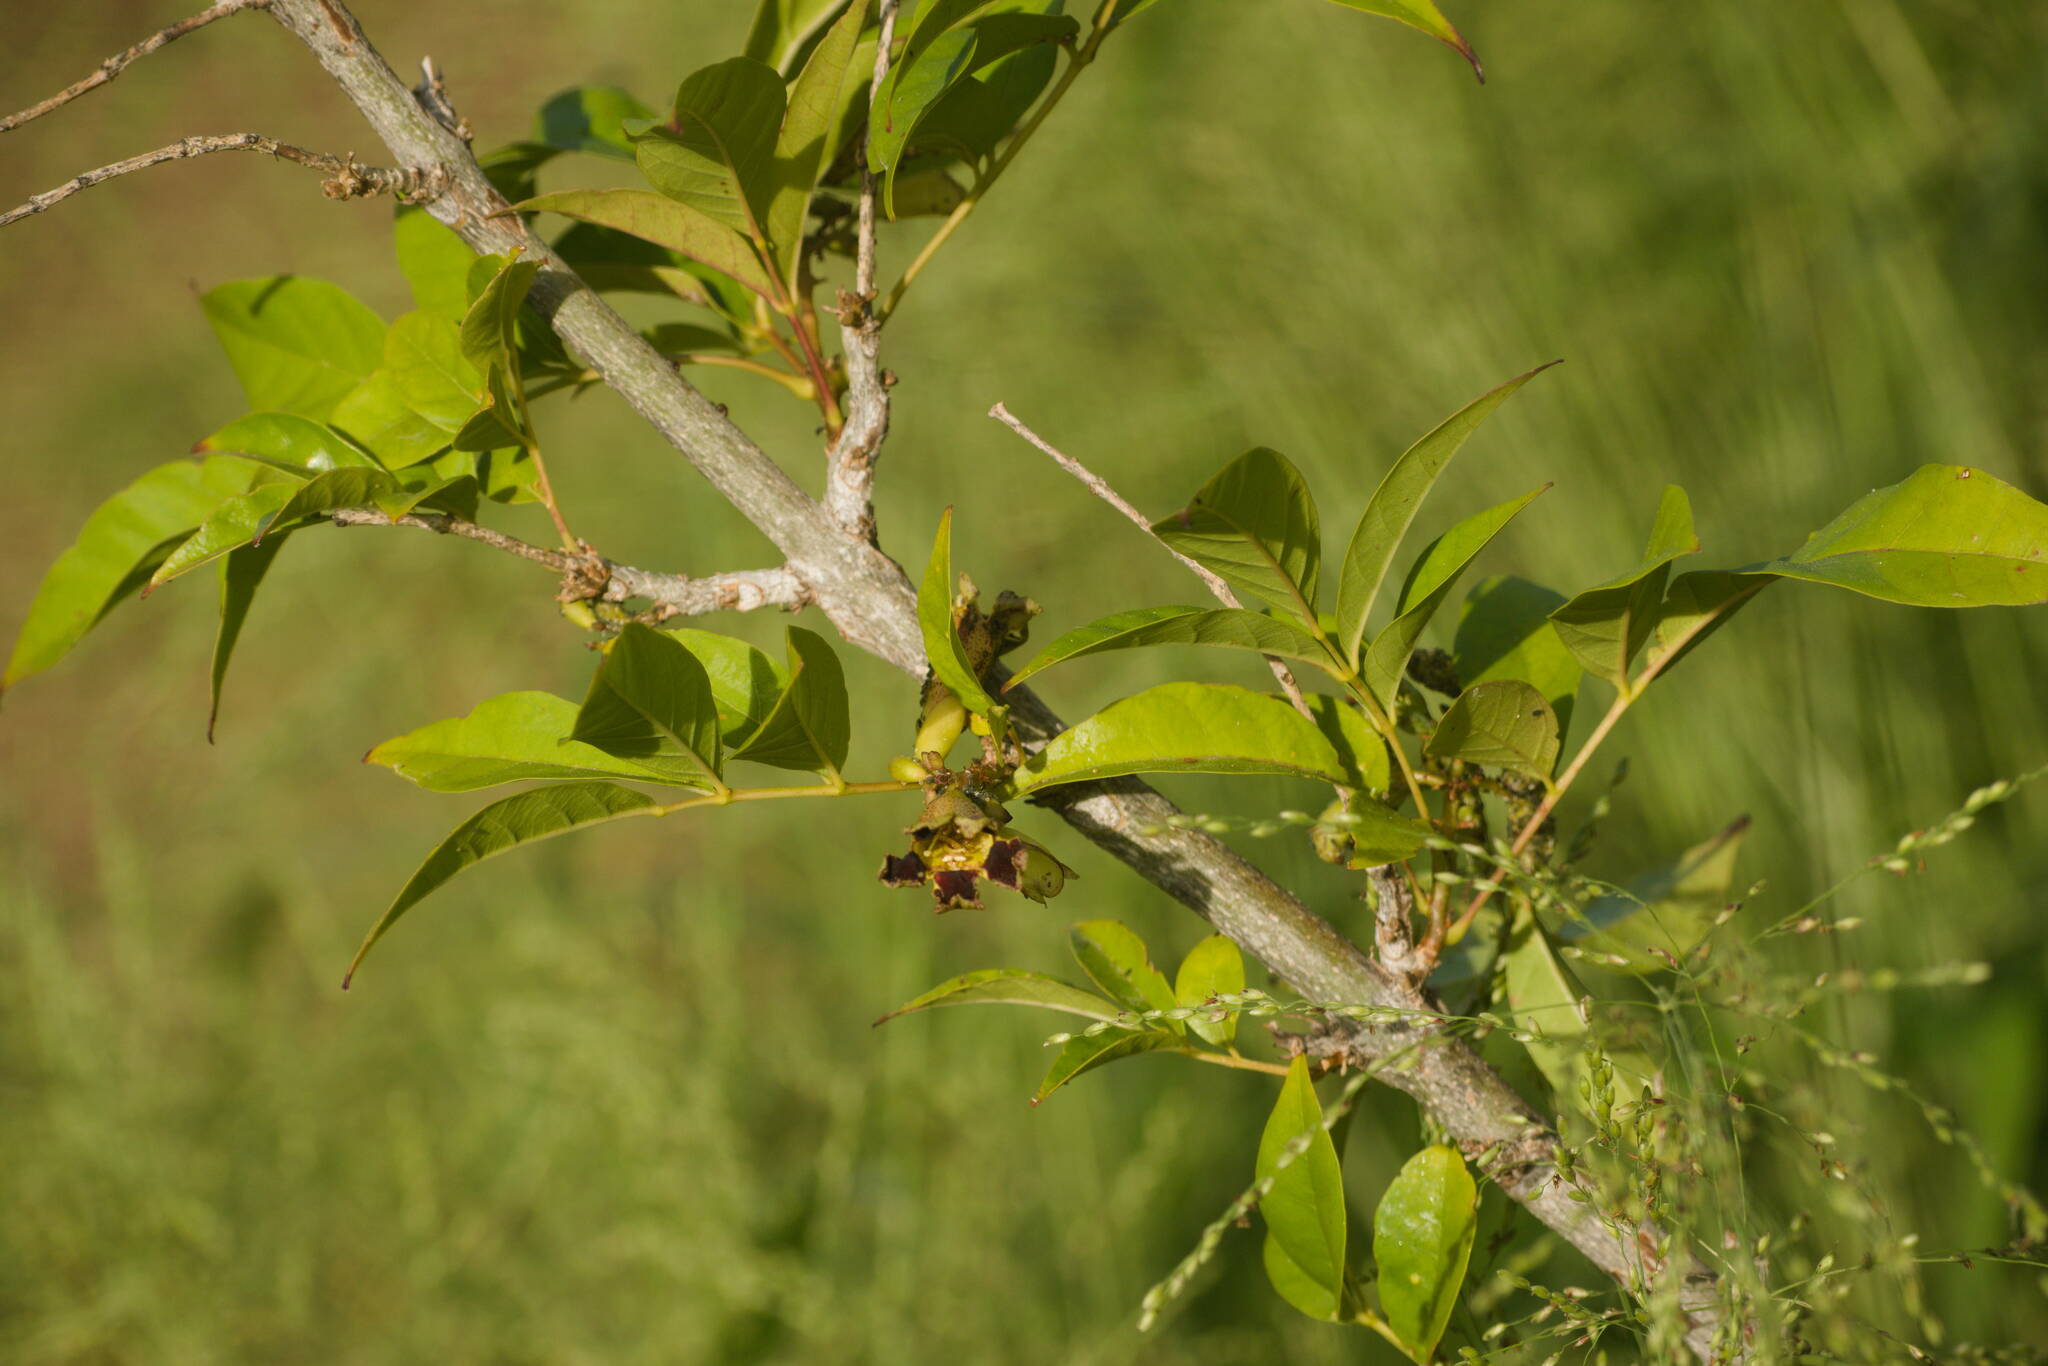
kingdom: Plantae
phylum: Tracheophyta
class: Magnoliopsida
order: Lamiales
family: Bignoniaceae
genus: Markhamia
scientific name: Markhamia zanzibarica
